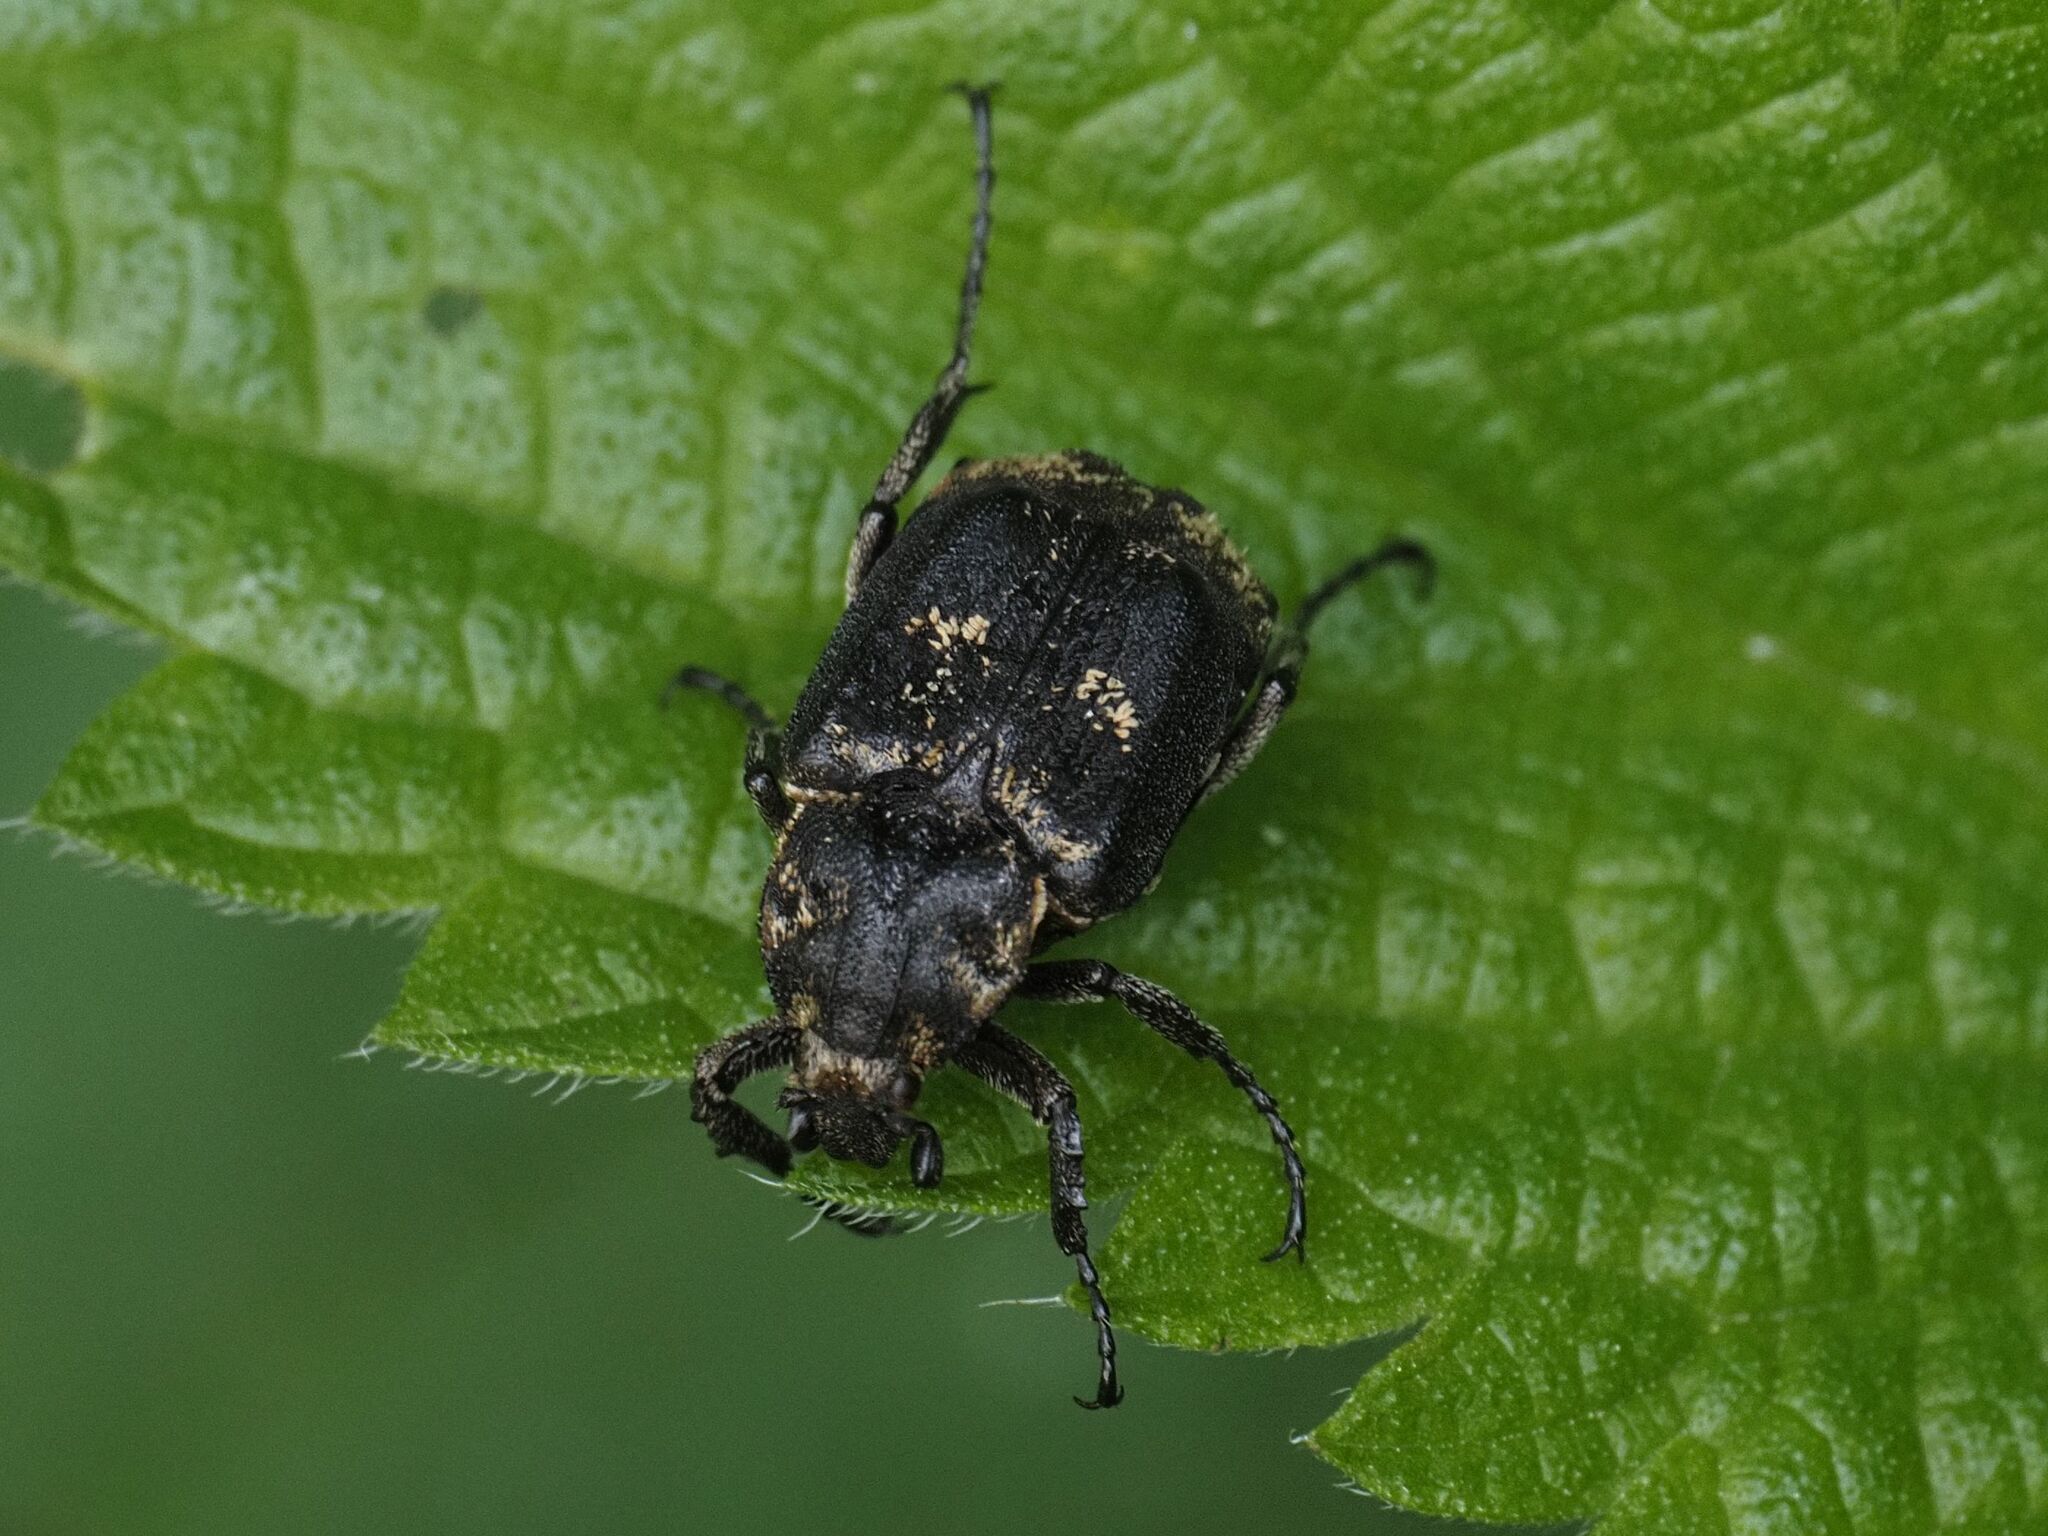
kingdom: Animalia
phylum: Arthropoda
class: Insecta
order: Coleoptera
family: Scarabaeidae
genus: Valgus
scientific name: Valgus hemipterus
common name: Bug flower chafer
